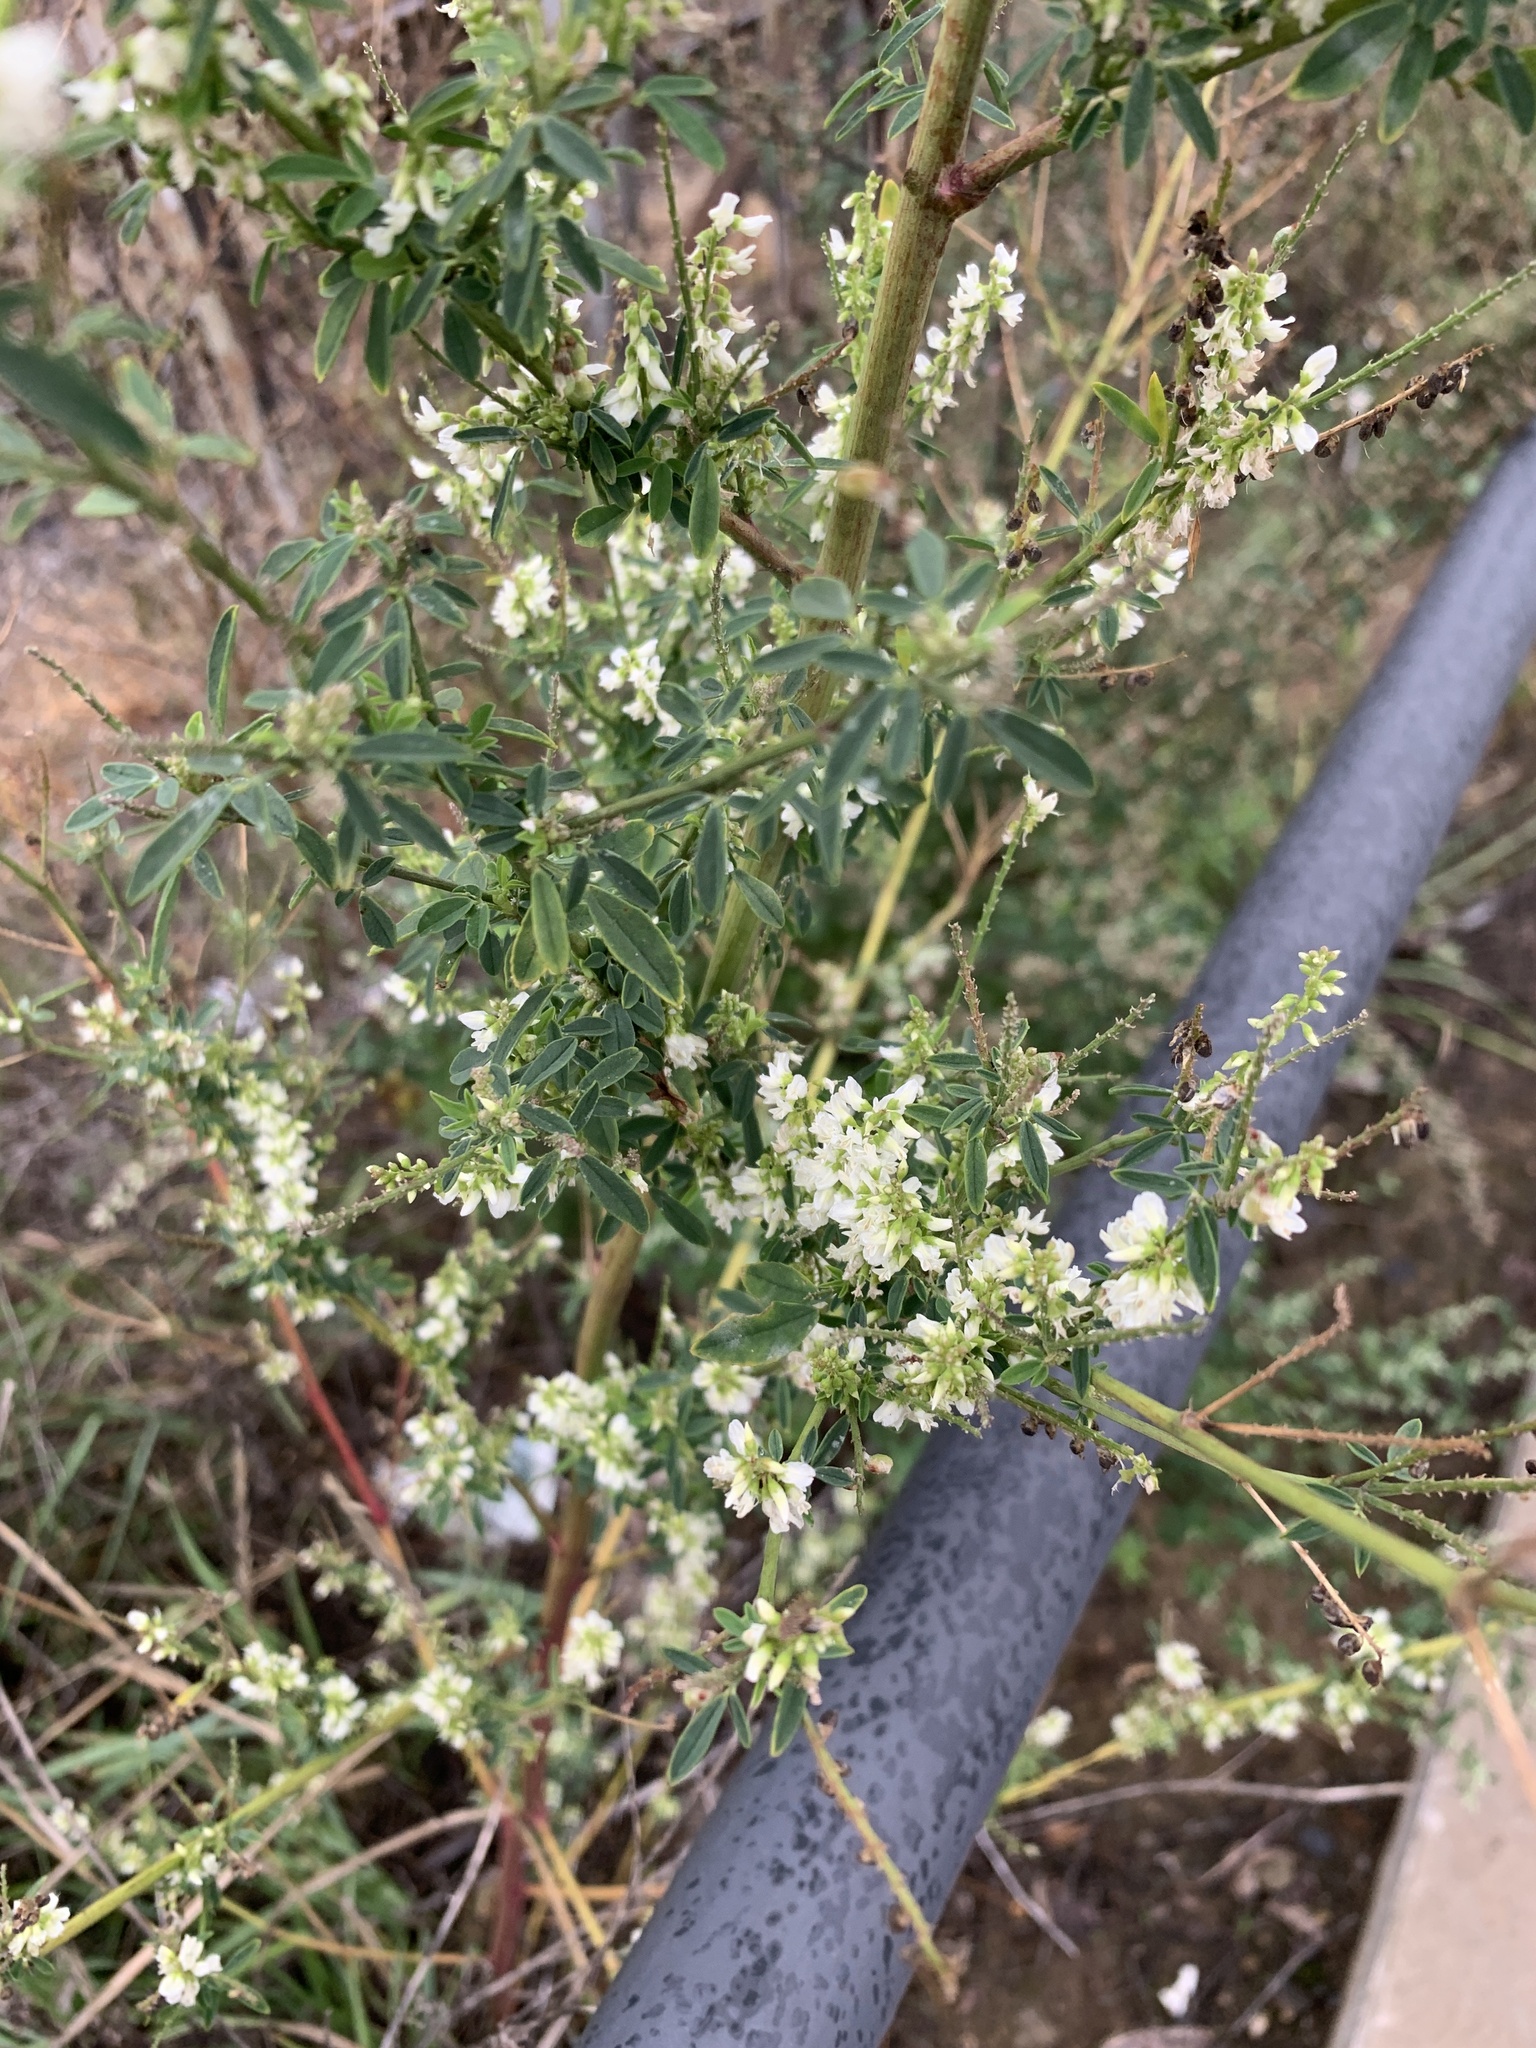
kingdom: Plantae
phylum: Tracheophyta
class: Magnoliopsida
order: Fabales
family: Fabaceae
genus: Melilotus
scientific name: Melilotus albus
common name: White melilot
